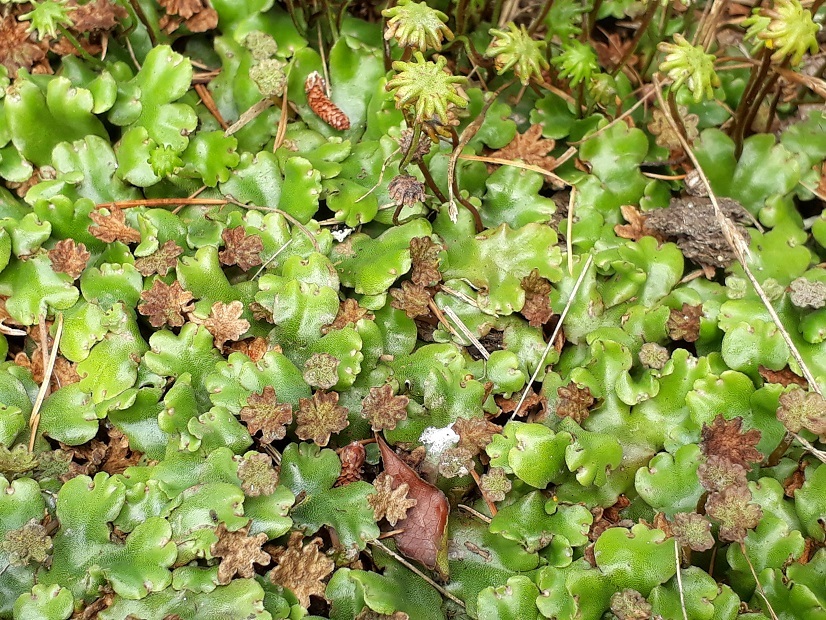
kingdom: Plantae
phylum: Marchantiophyta
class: Marchantiopsida
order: Marchantiales
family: Marchantiaceae
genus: Marchantia
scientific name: Marchantia polymorpha
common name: Common liverwort
